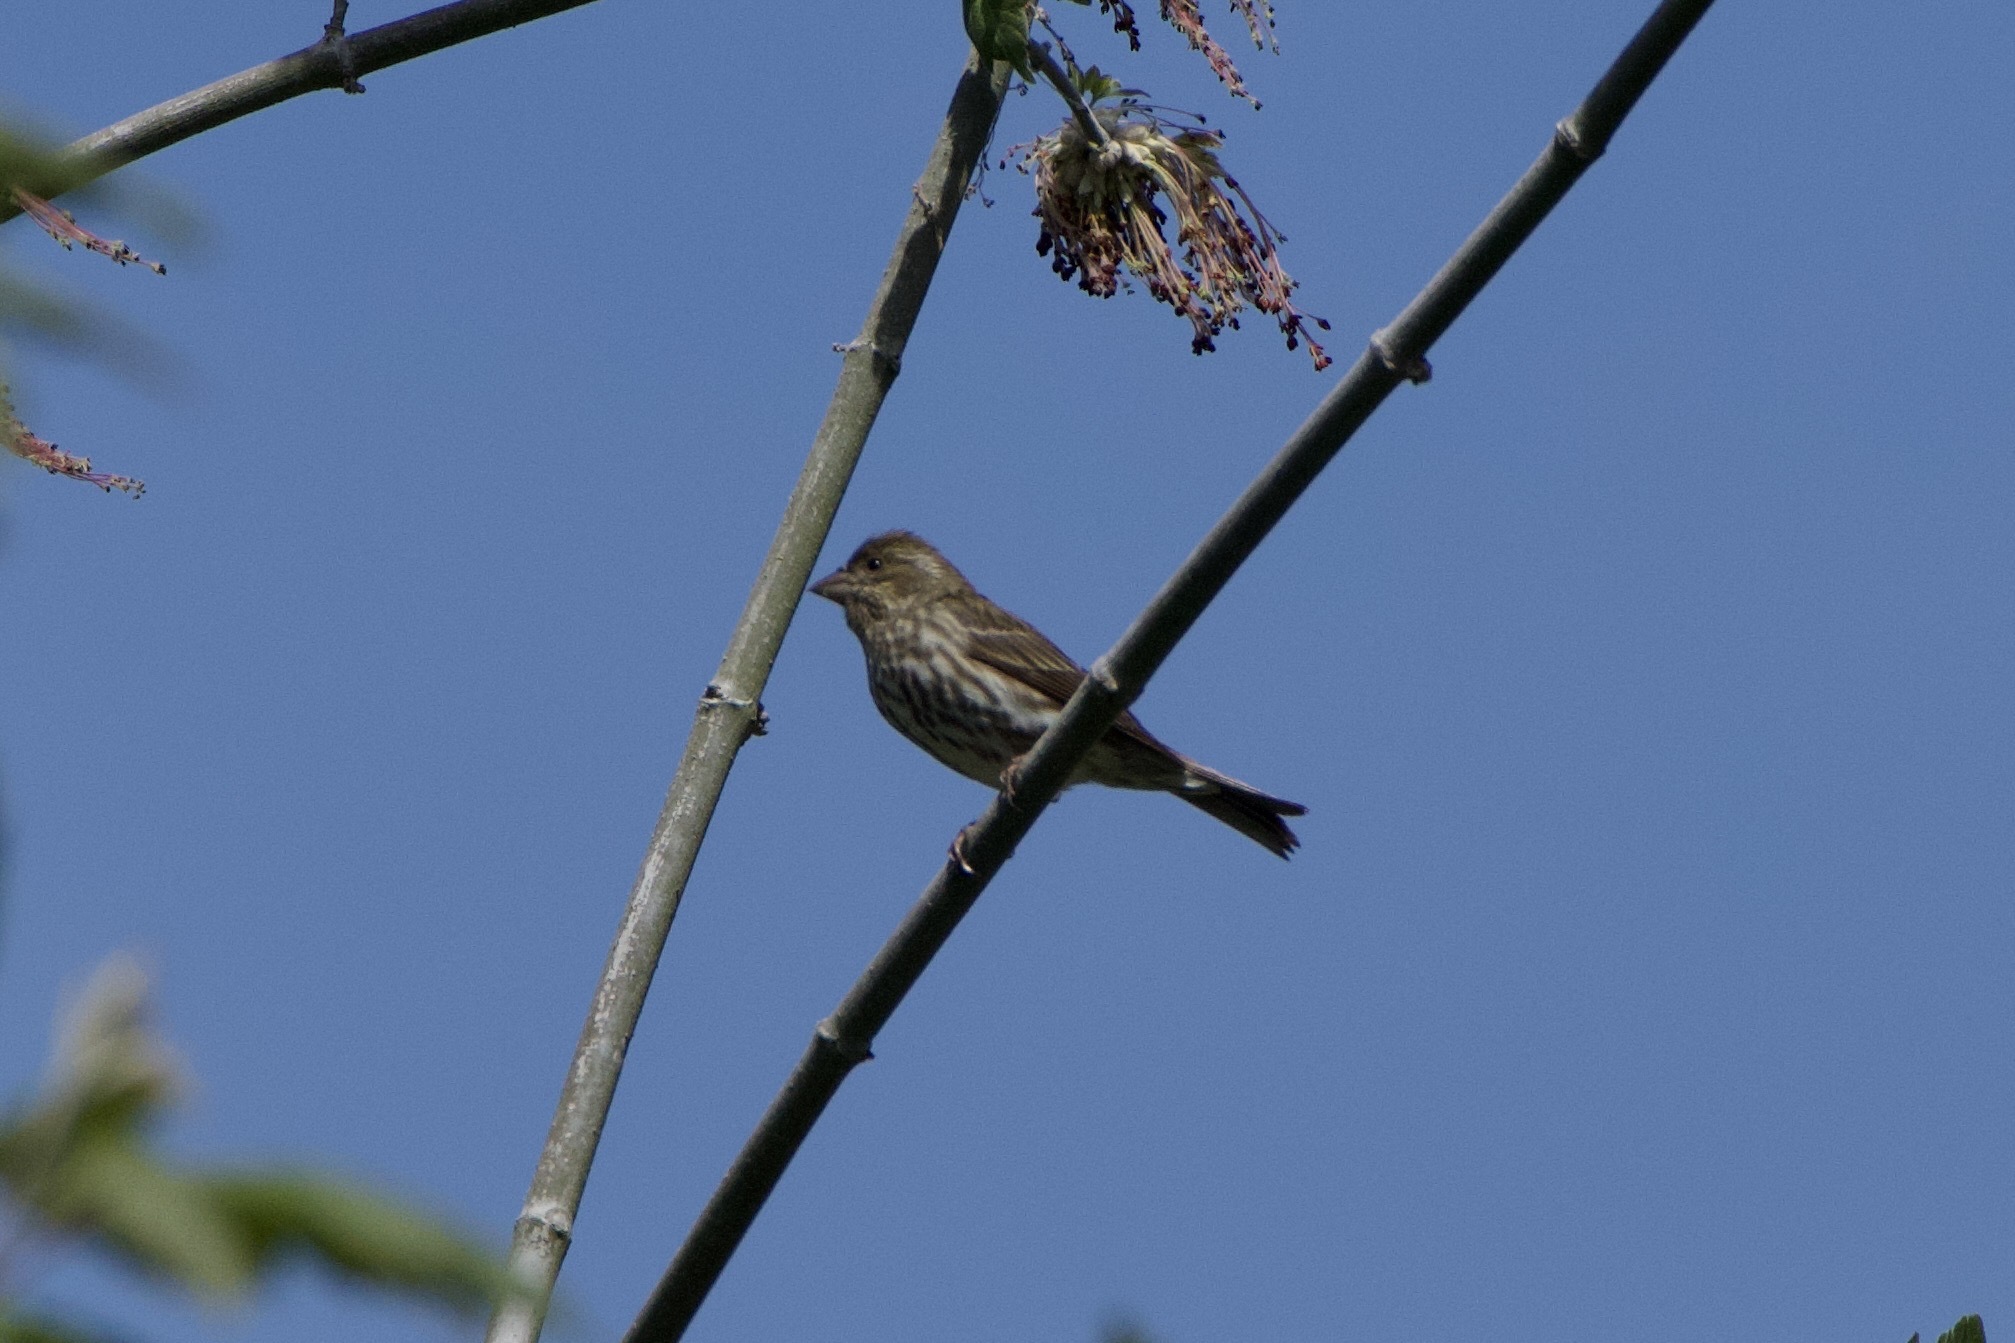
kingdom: Animalia
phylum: Chordata
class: Aves
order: Passeriformes
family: Fringillidae
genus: Haemorhous
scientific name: Haemorhous purpureus
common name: Purple finch
